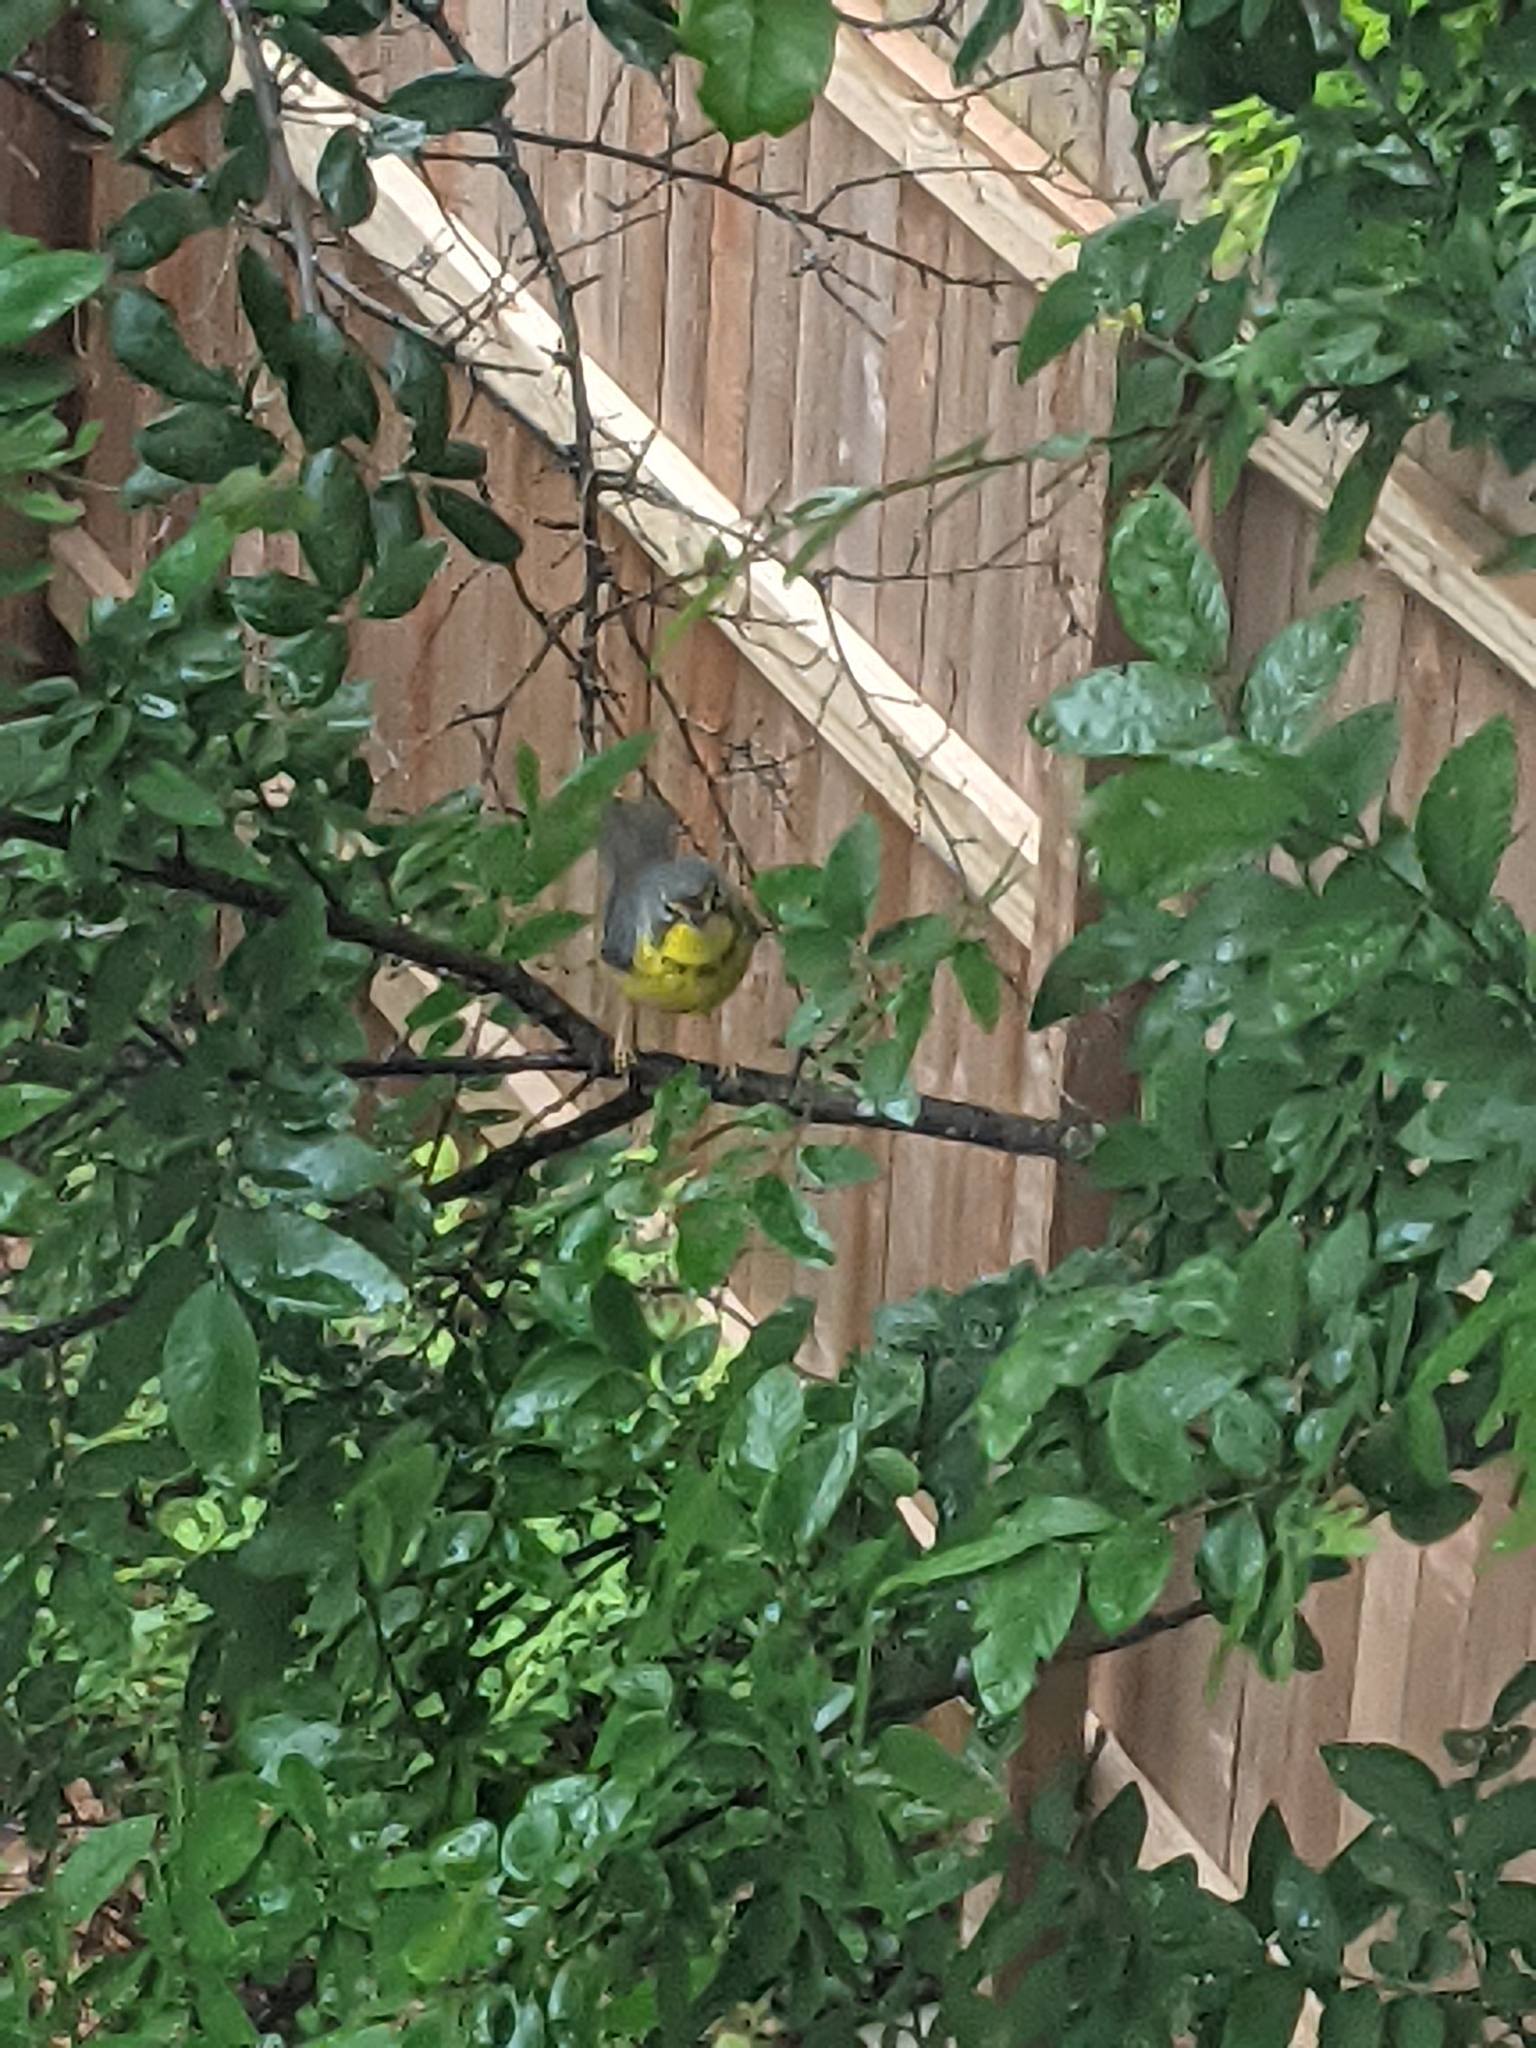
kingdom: Animalia
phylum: Chordata
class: Aves
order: Passeriformes
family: Parulidae
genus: Cardellina
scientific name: Cardellina canadensis
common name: Canada warbler
